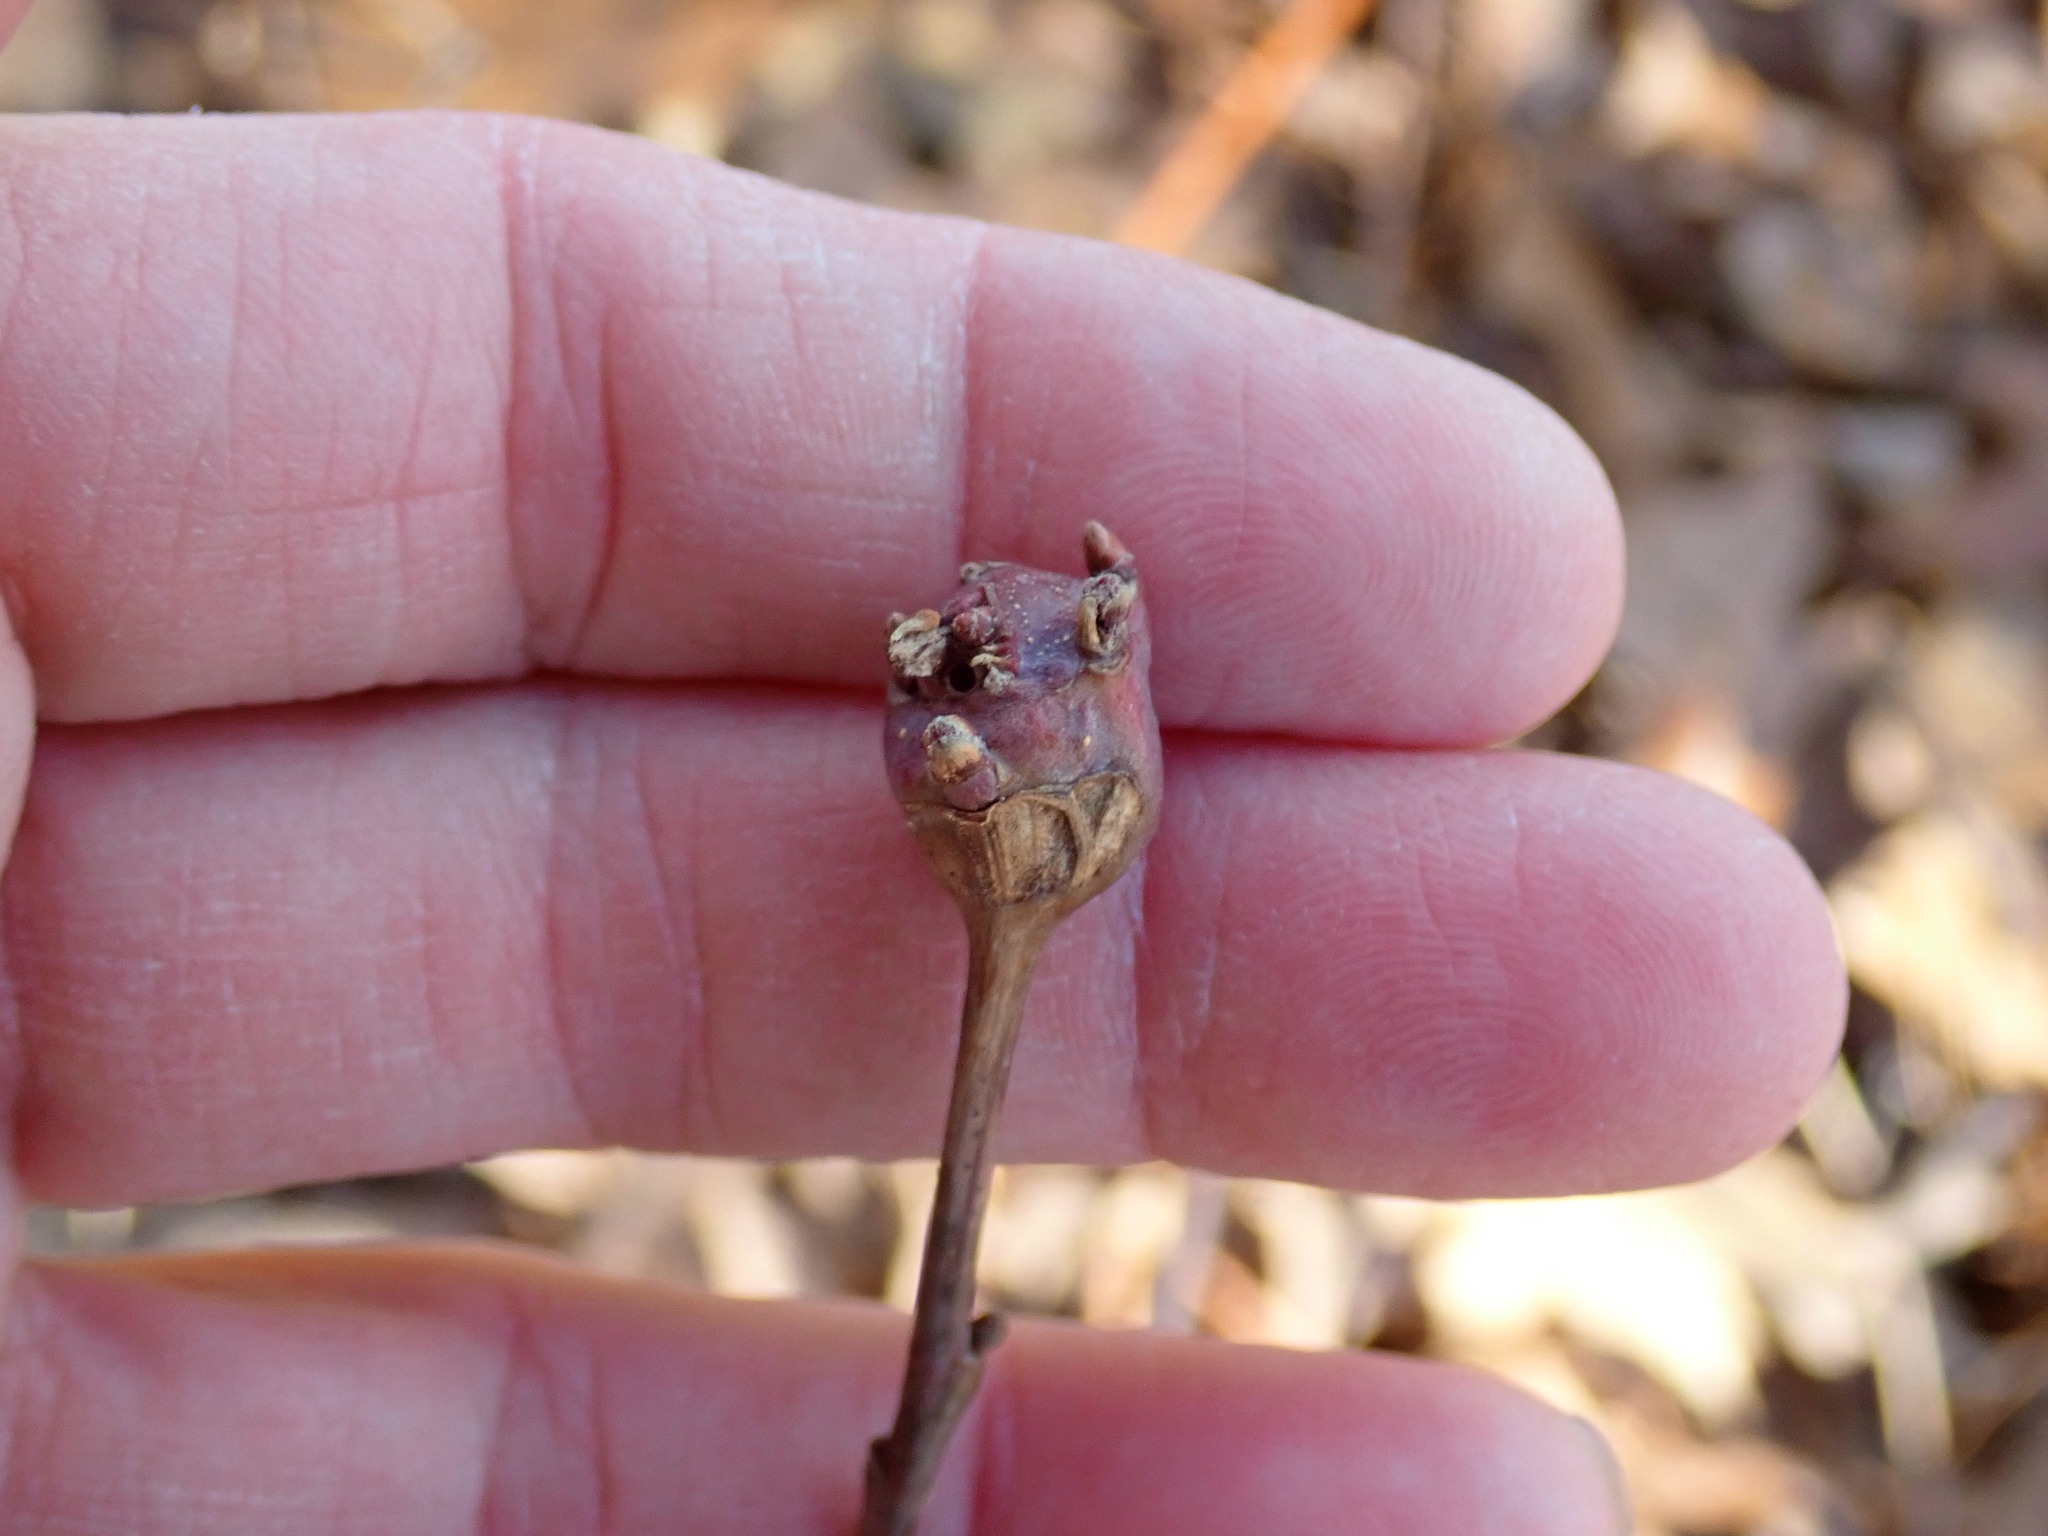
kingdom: Animalia
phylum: Arthropoda
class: Insecta
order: Hymenoptera
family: Cynipidae
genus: Callirhytis
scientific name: Callirhytis clavula
